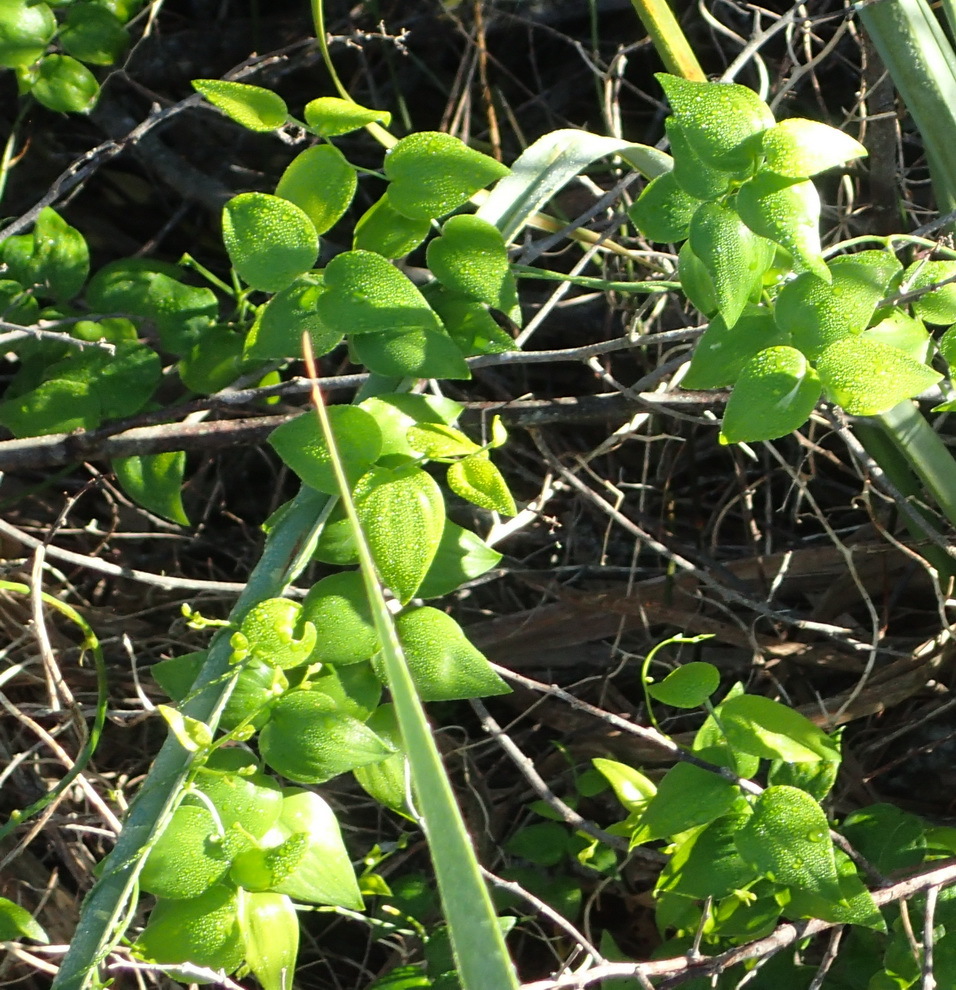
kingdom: Plantae
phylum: Tracheophyta
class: Liliopsida
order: Asparagales
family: Asparagaceae
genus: Asparagus
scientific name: Asparagus asparagoides
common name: African asparagus fern
